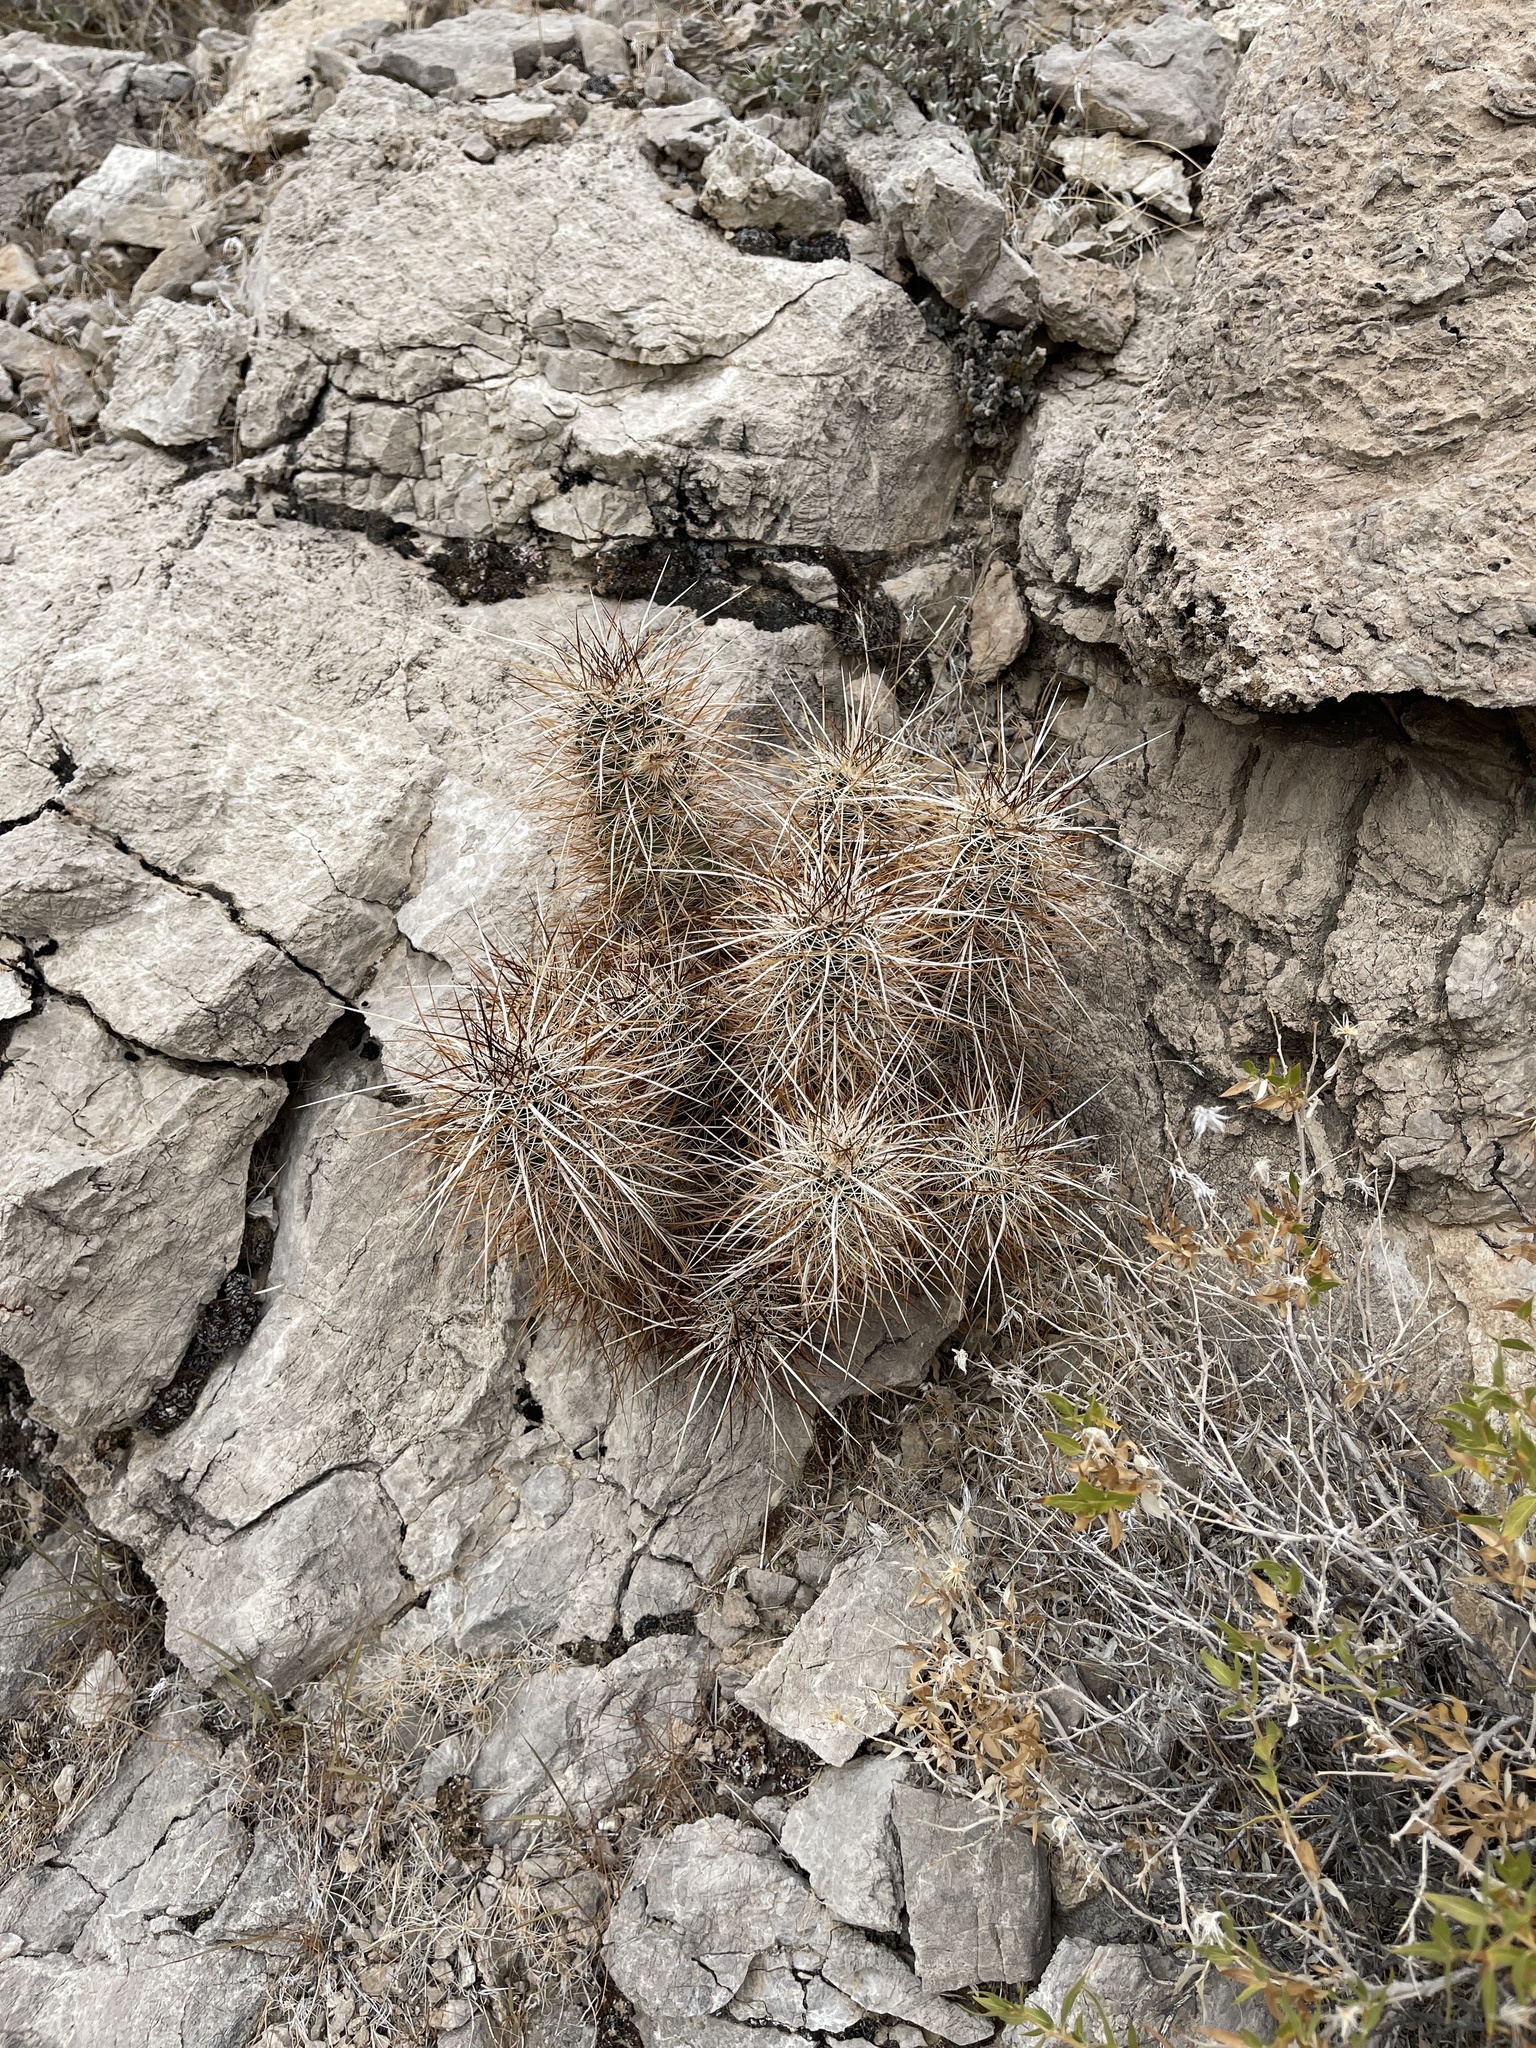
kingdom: Plantae
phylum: Tracheophyta
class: Magnoliopsida
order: Caryophyllales
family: Cactaceae
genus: Echinocereus
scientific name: Echinocereus engelmannii
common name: Engelmann's hedgehog cactus
